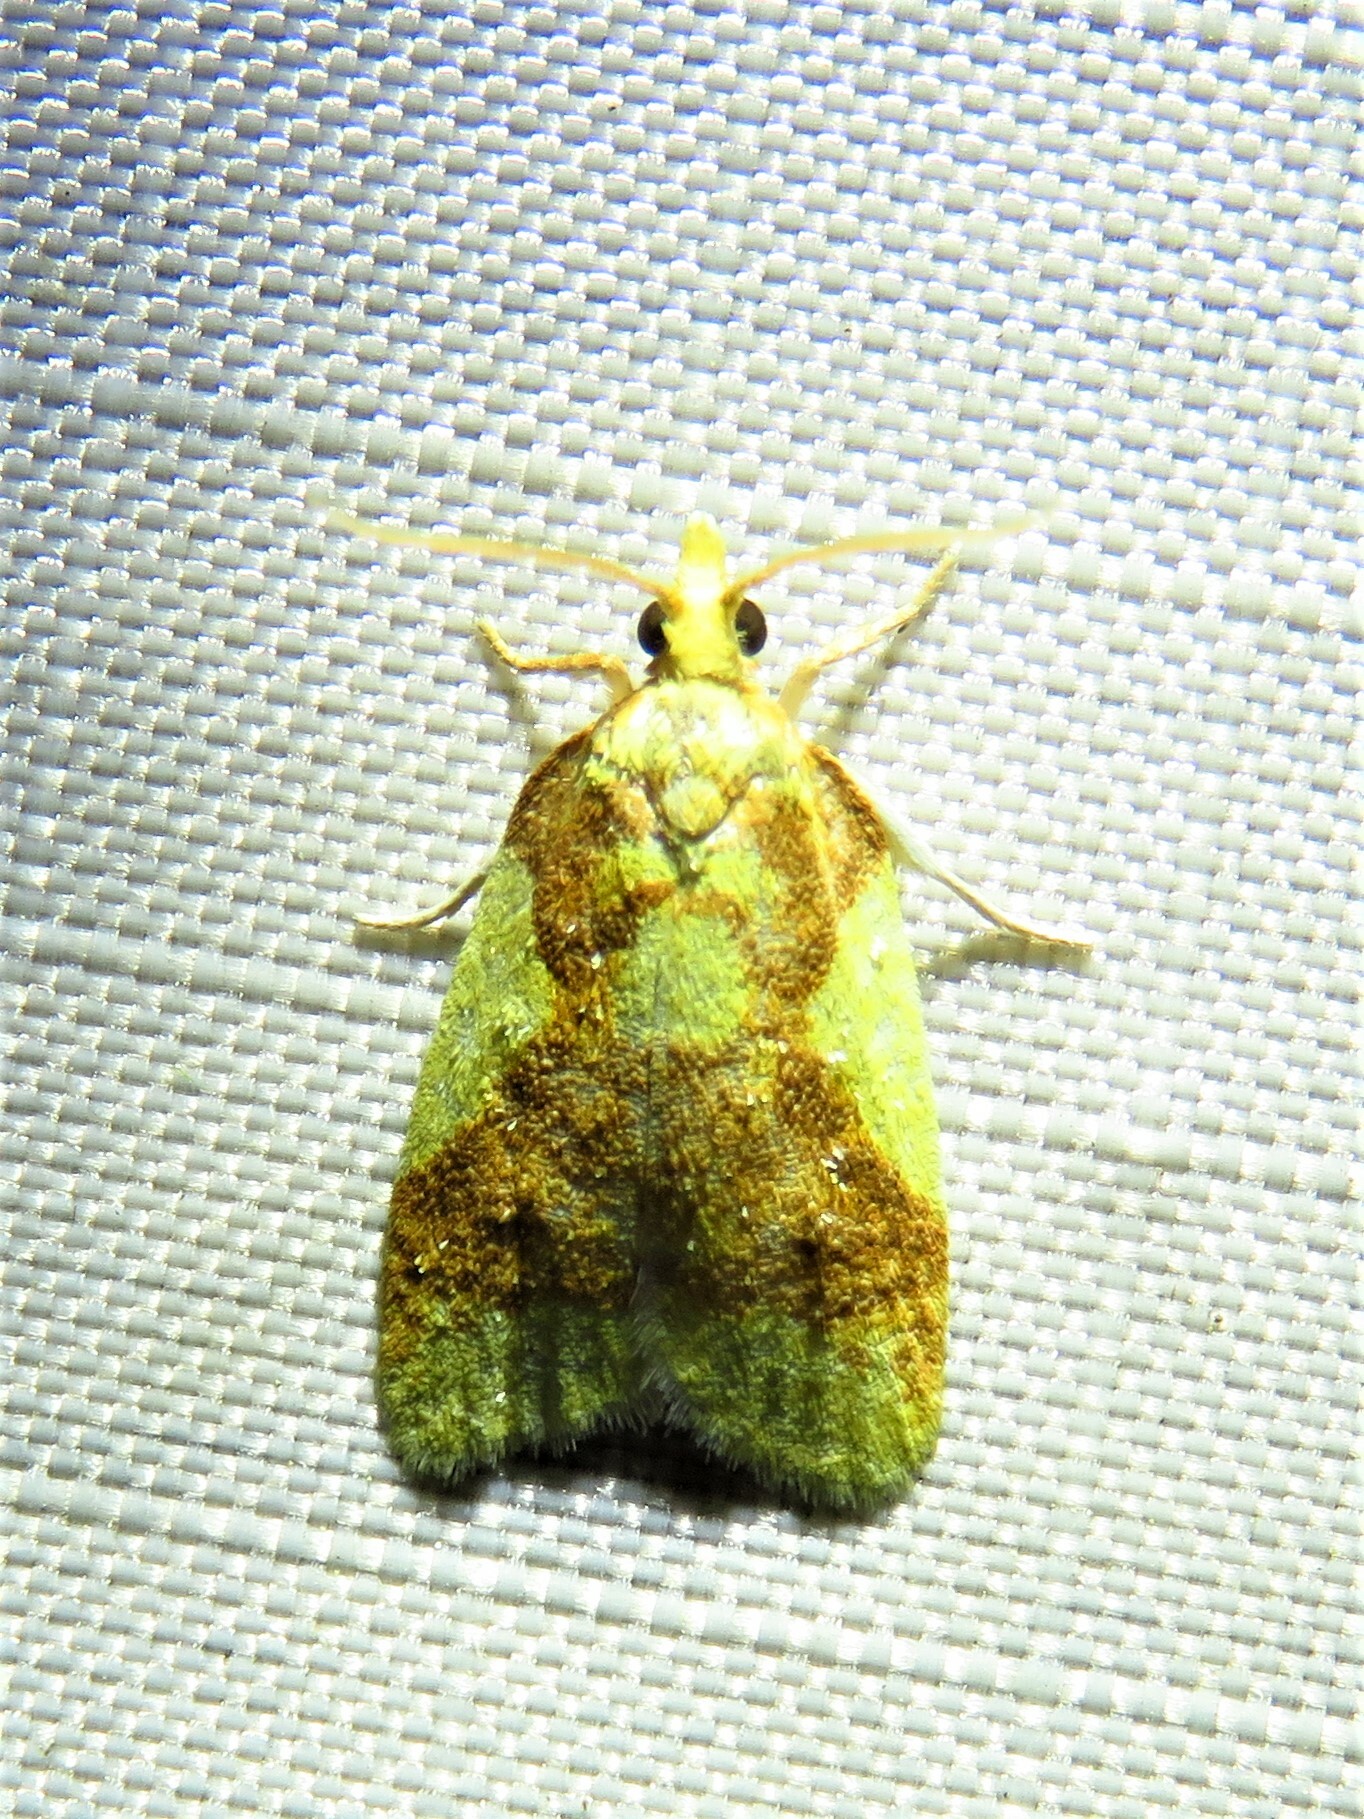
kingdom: Animalia
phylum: Arthropoda
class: Insecta
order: Lepidoptera
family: Tortricidae
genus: Sparganothis
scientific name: Sparganothis pulcherrimana
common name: Beautiful sparganothis
